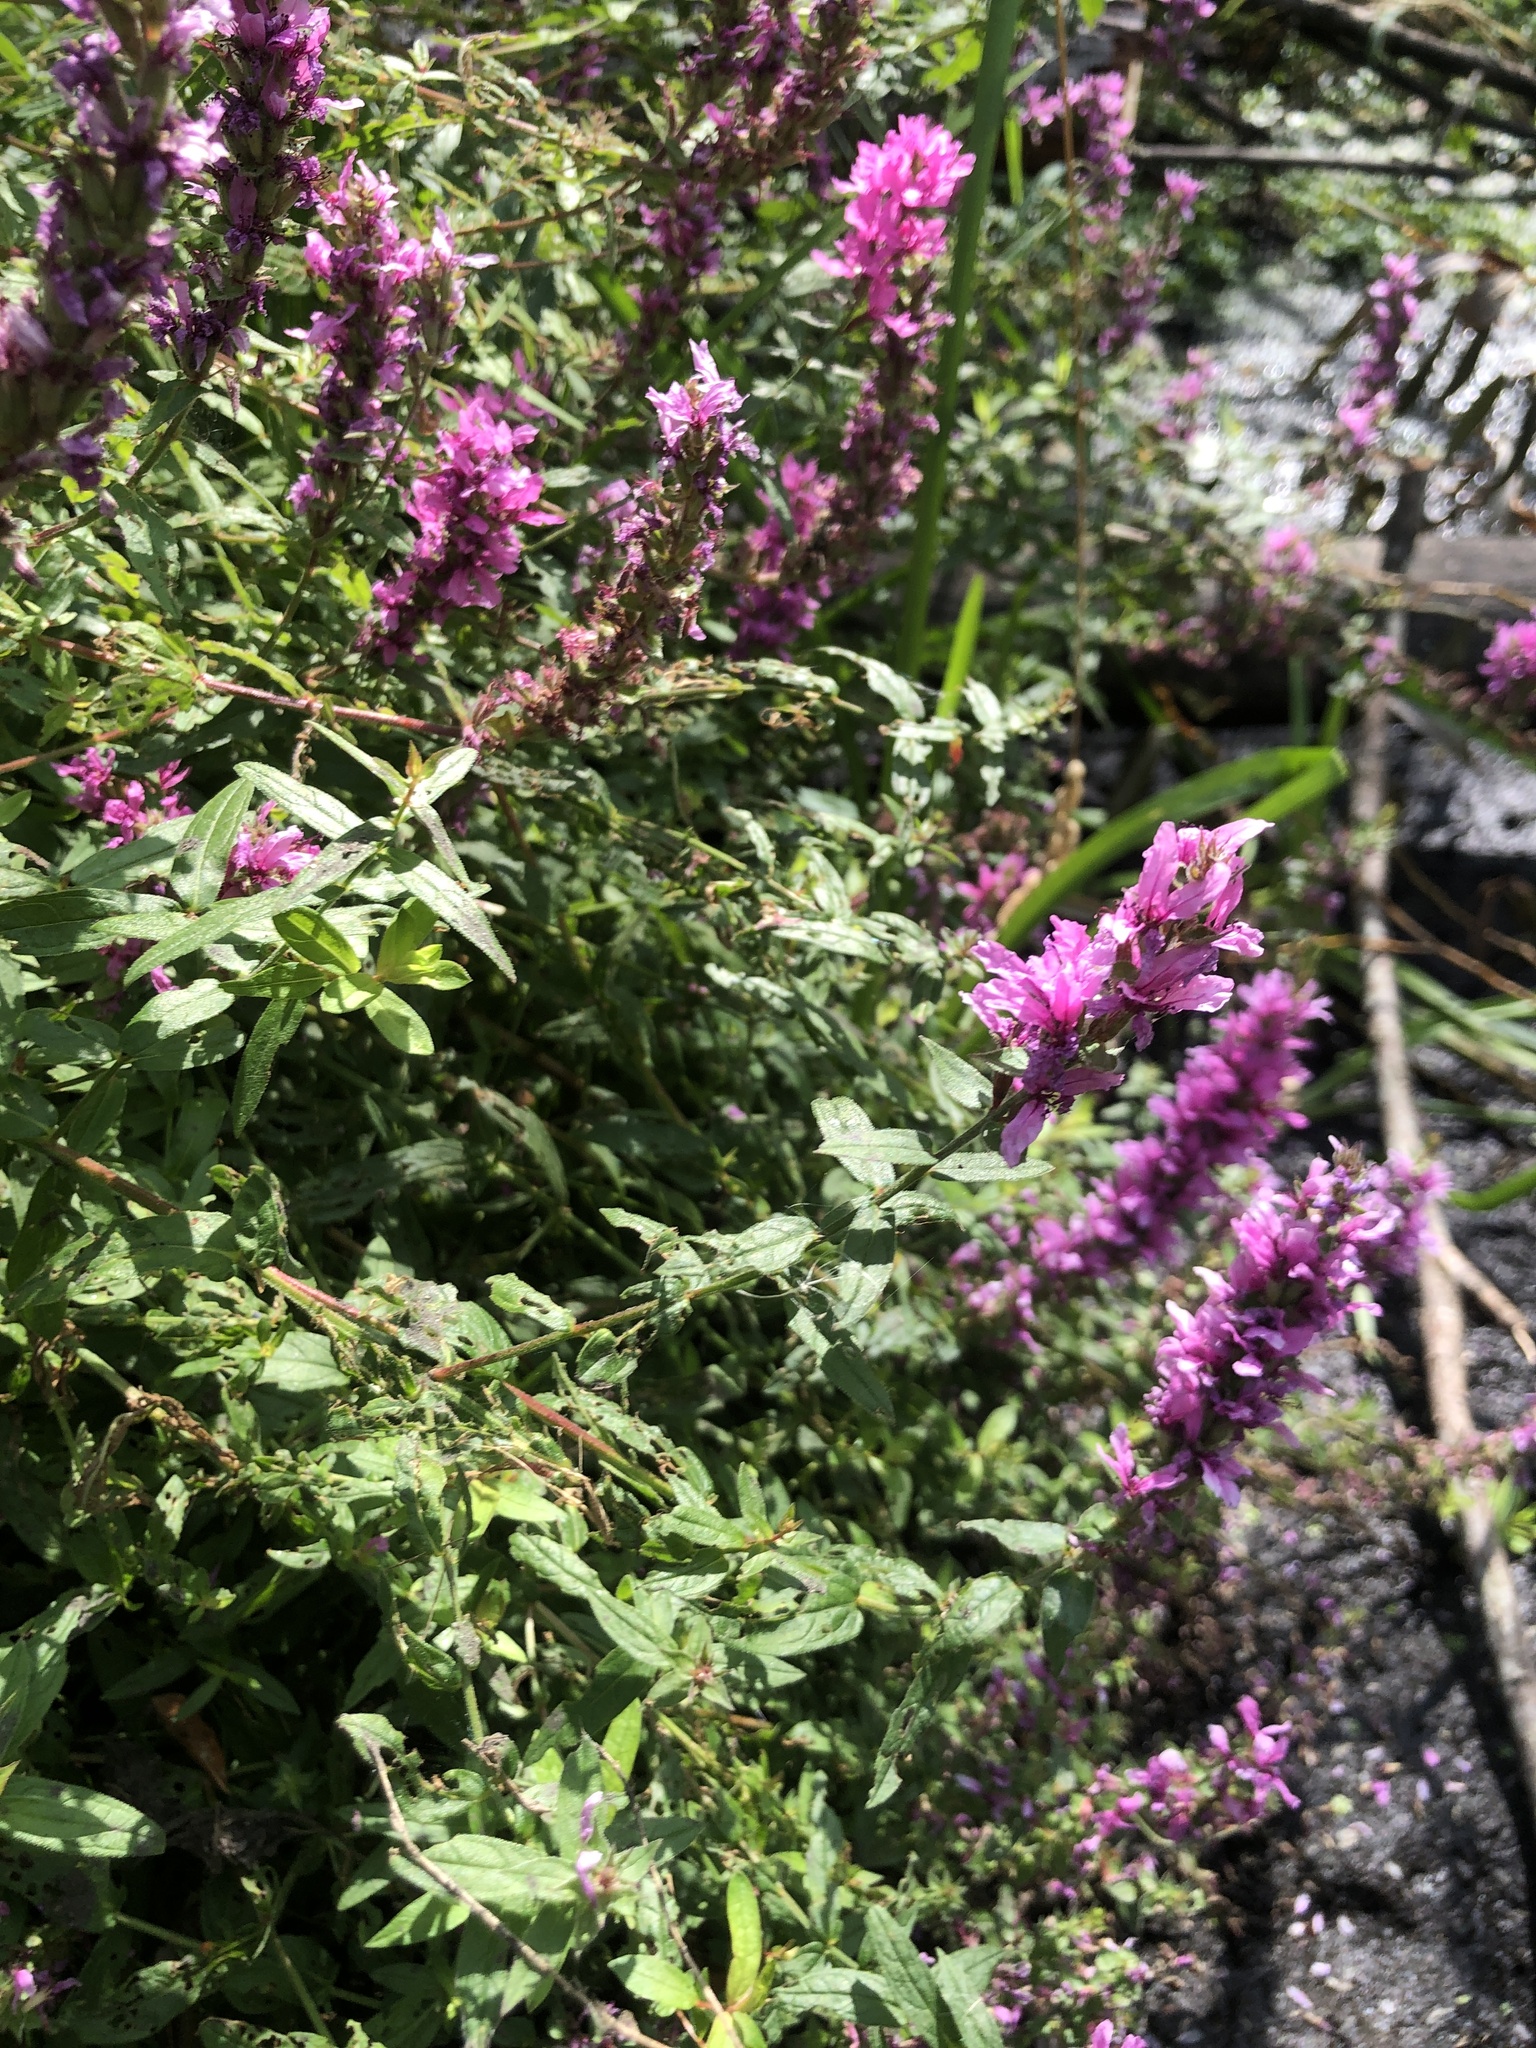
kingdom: Plantae
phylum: Tracheophyta
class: Magnoliopsida
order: Myrtales
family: Lythraceae
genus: Lythrum
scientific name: Lythrum salicaria
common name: Purple loosestrife
